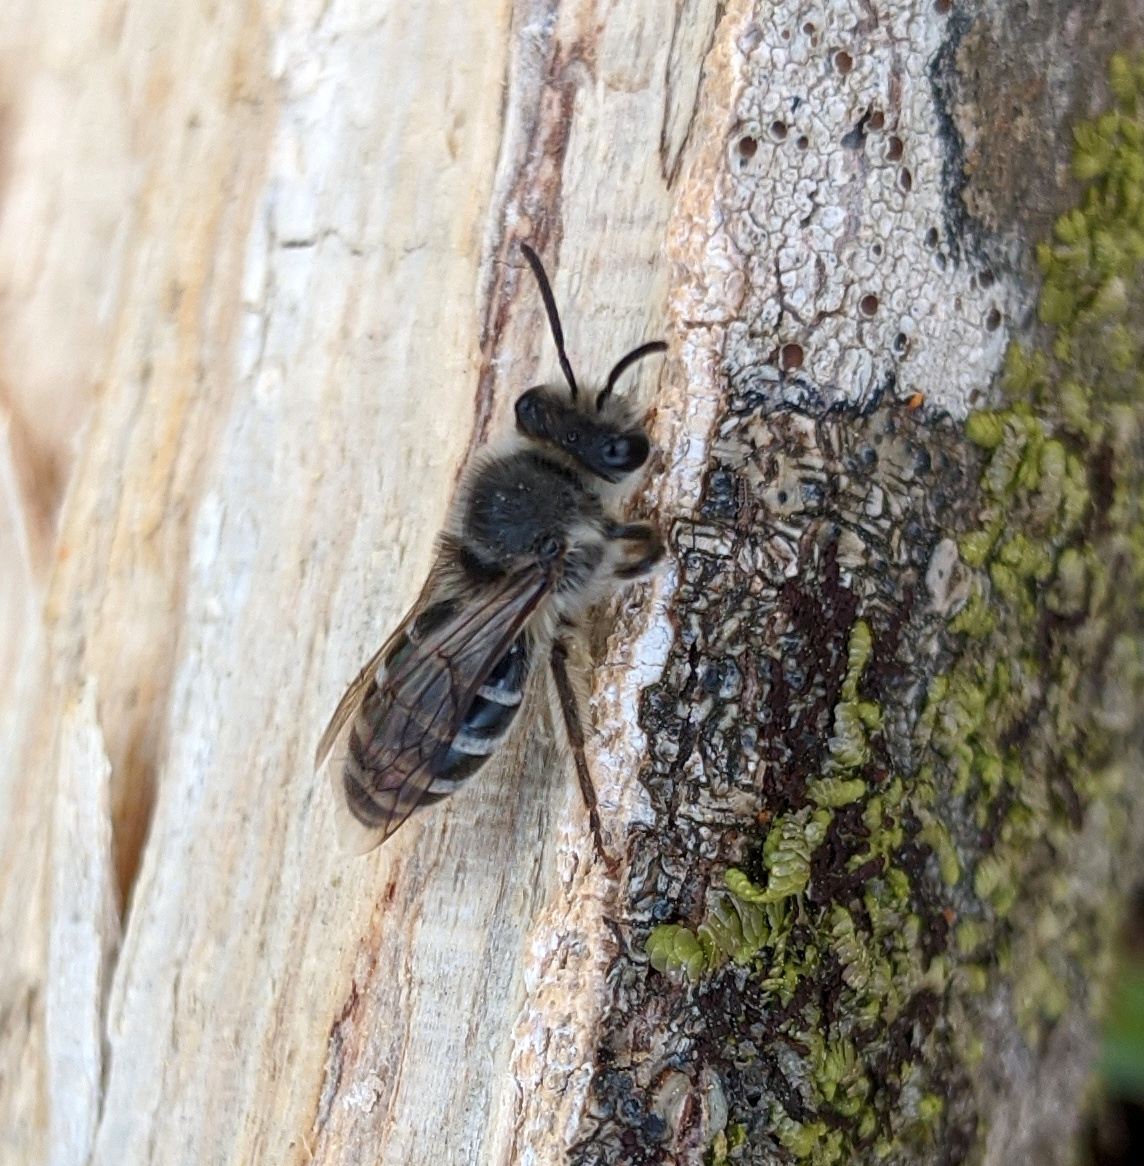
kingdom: Animalia
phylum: Arthropoda
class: Insecta
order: Hymenoptera
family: Colletidae
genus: Colletes
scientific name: Colletes inaequalis
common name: Unequal cellophane bee
